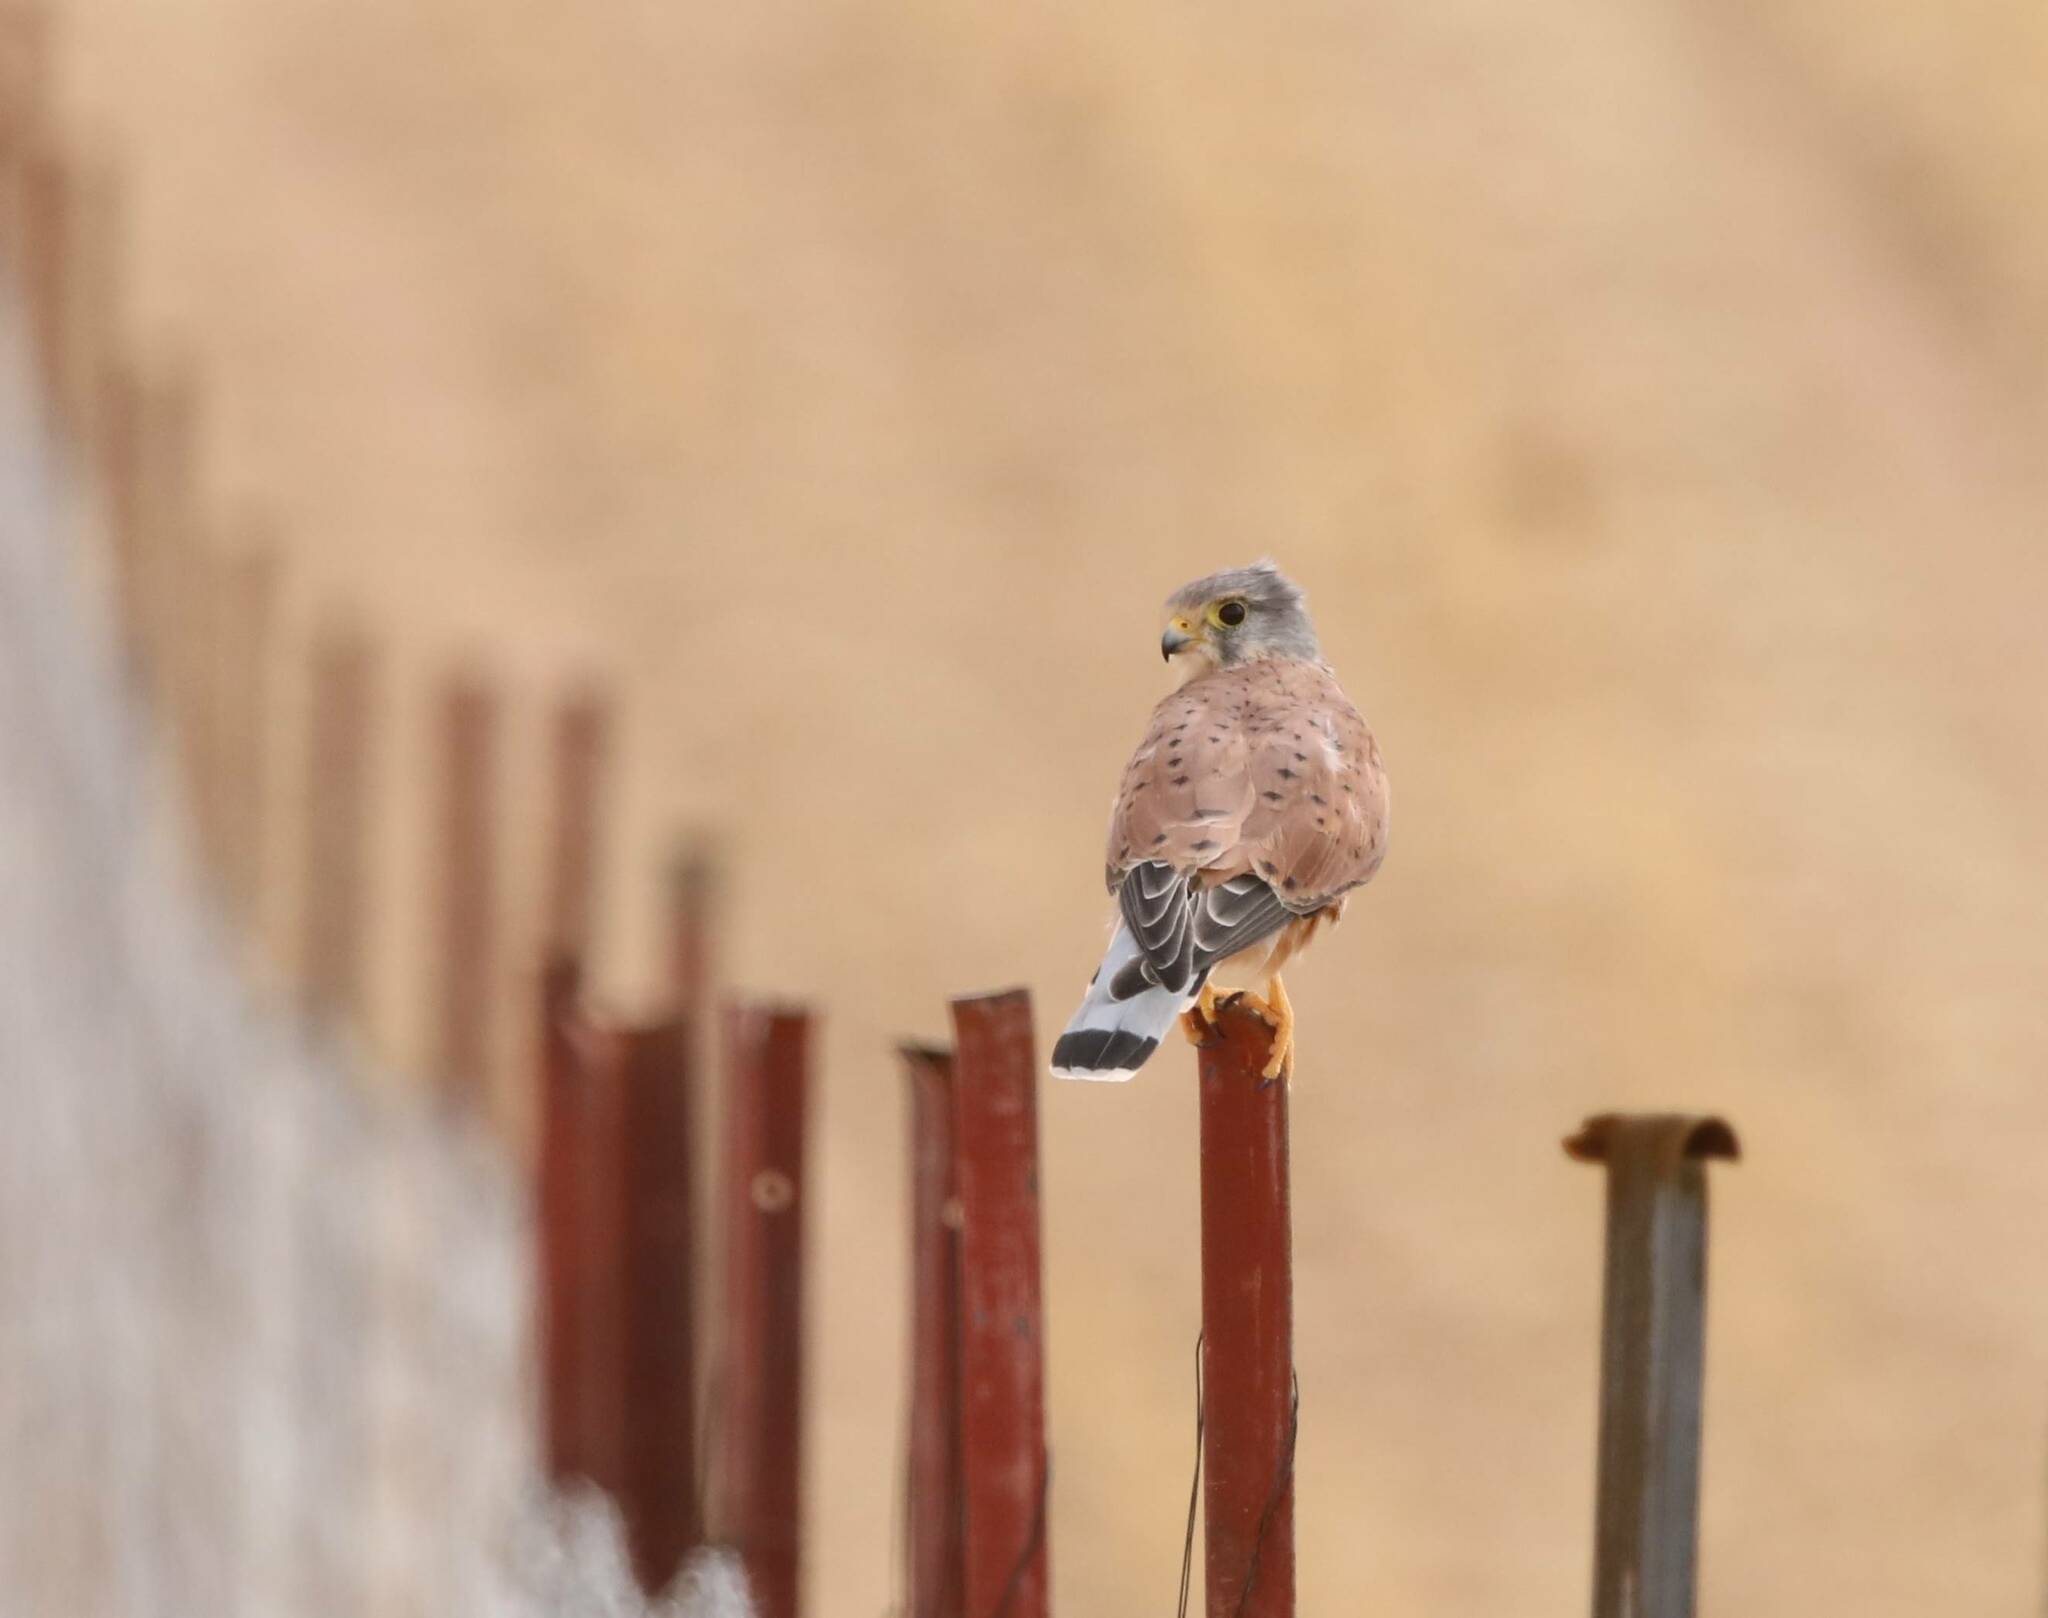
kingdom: Animalia
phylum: Chordata
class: Aves
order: Falconiformes
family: Falconidae
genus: Falco
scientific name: Falco tinnunculus
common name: Common kestrel
